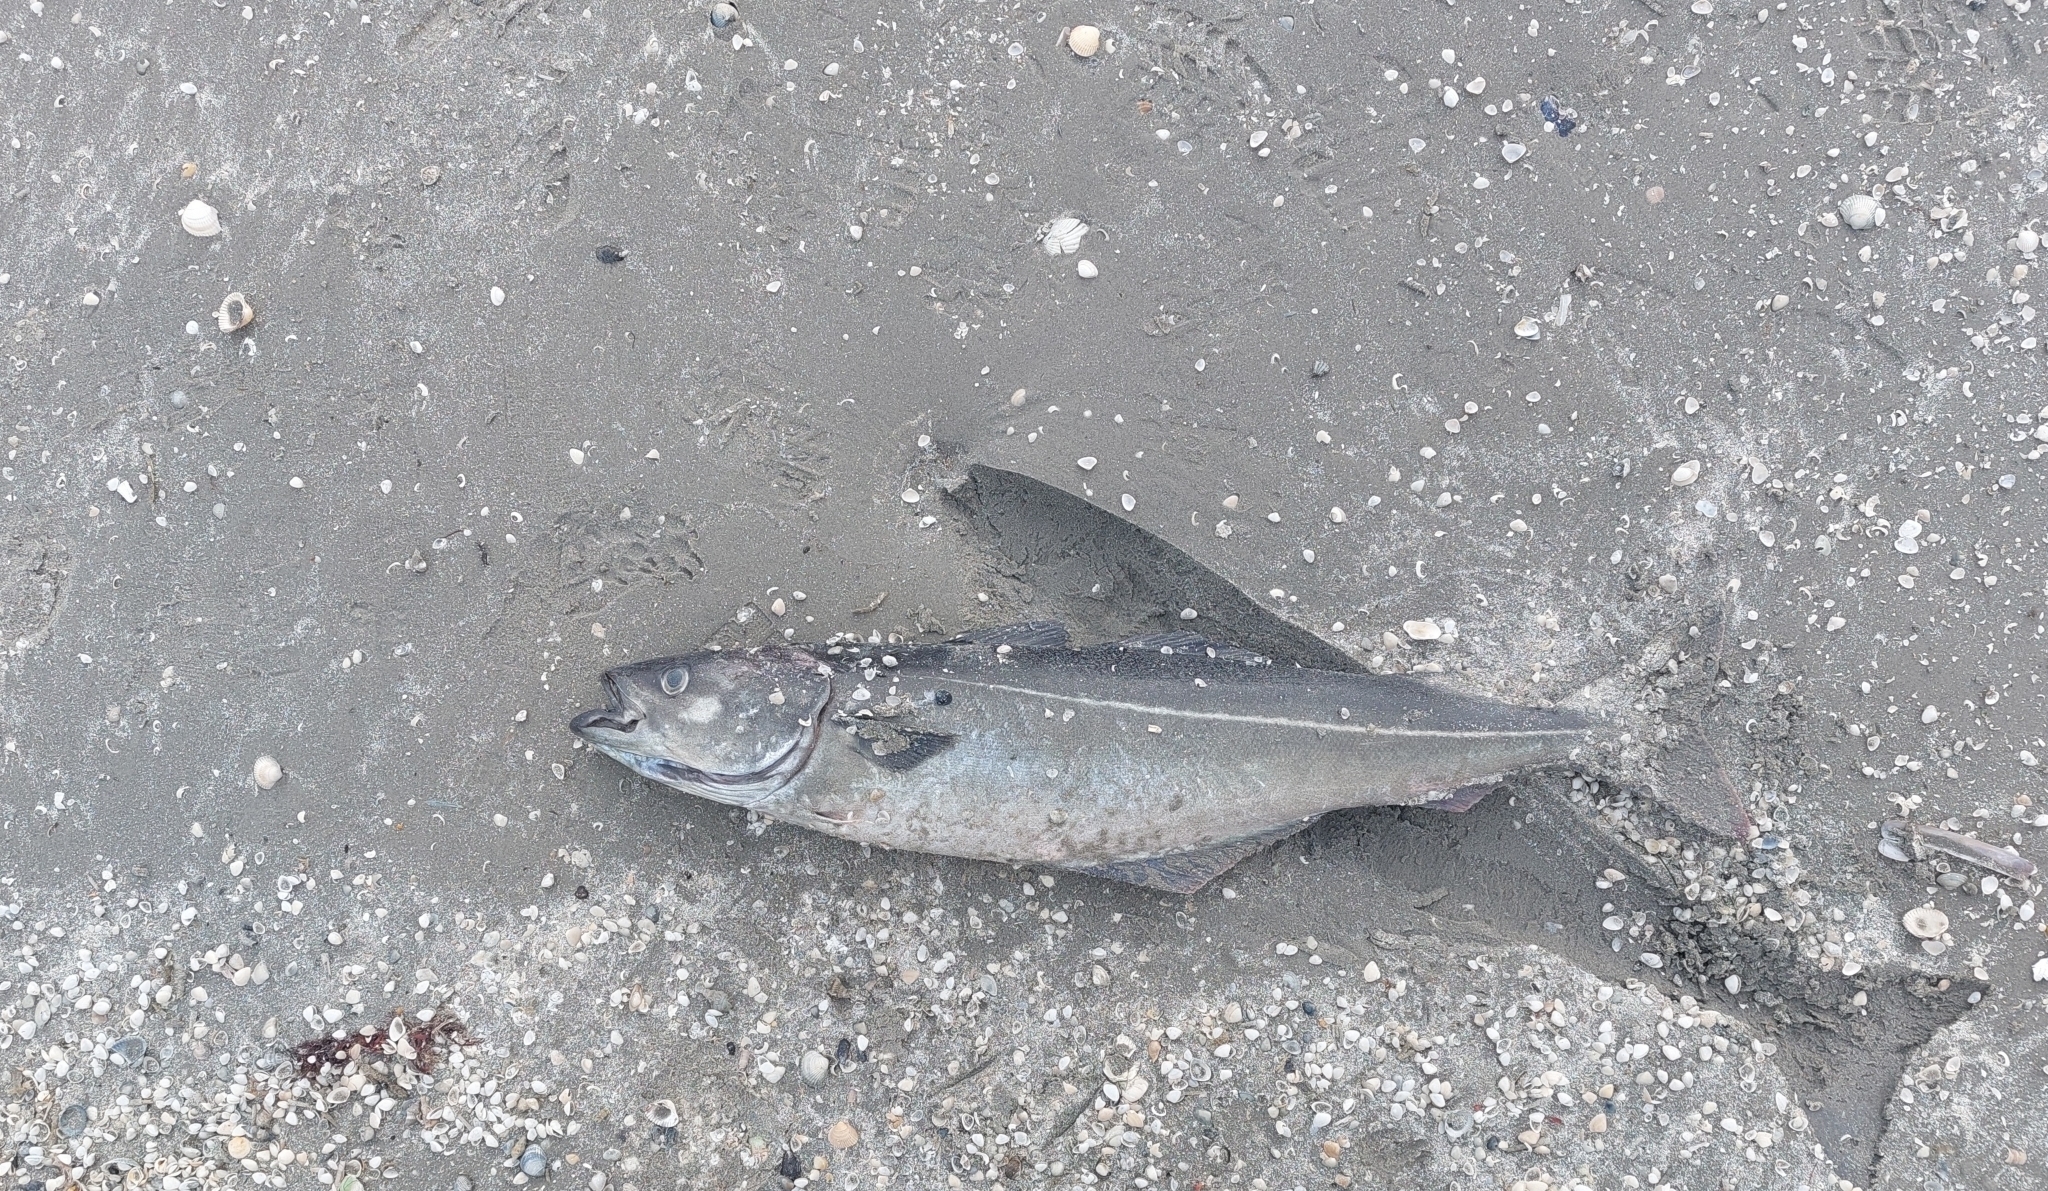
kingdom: Animalia
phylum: Chordata
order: Gadiformes
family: Gadidae
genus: Pollachius
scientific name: Pollachius virens
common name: Saithe
